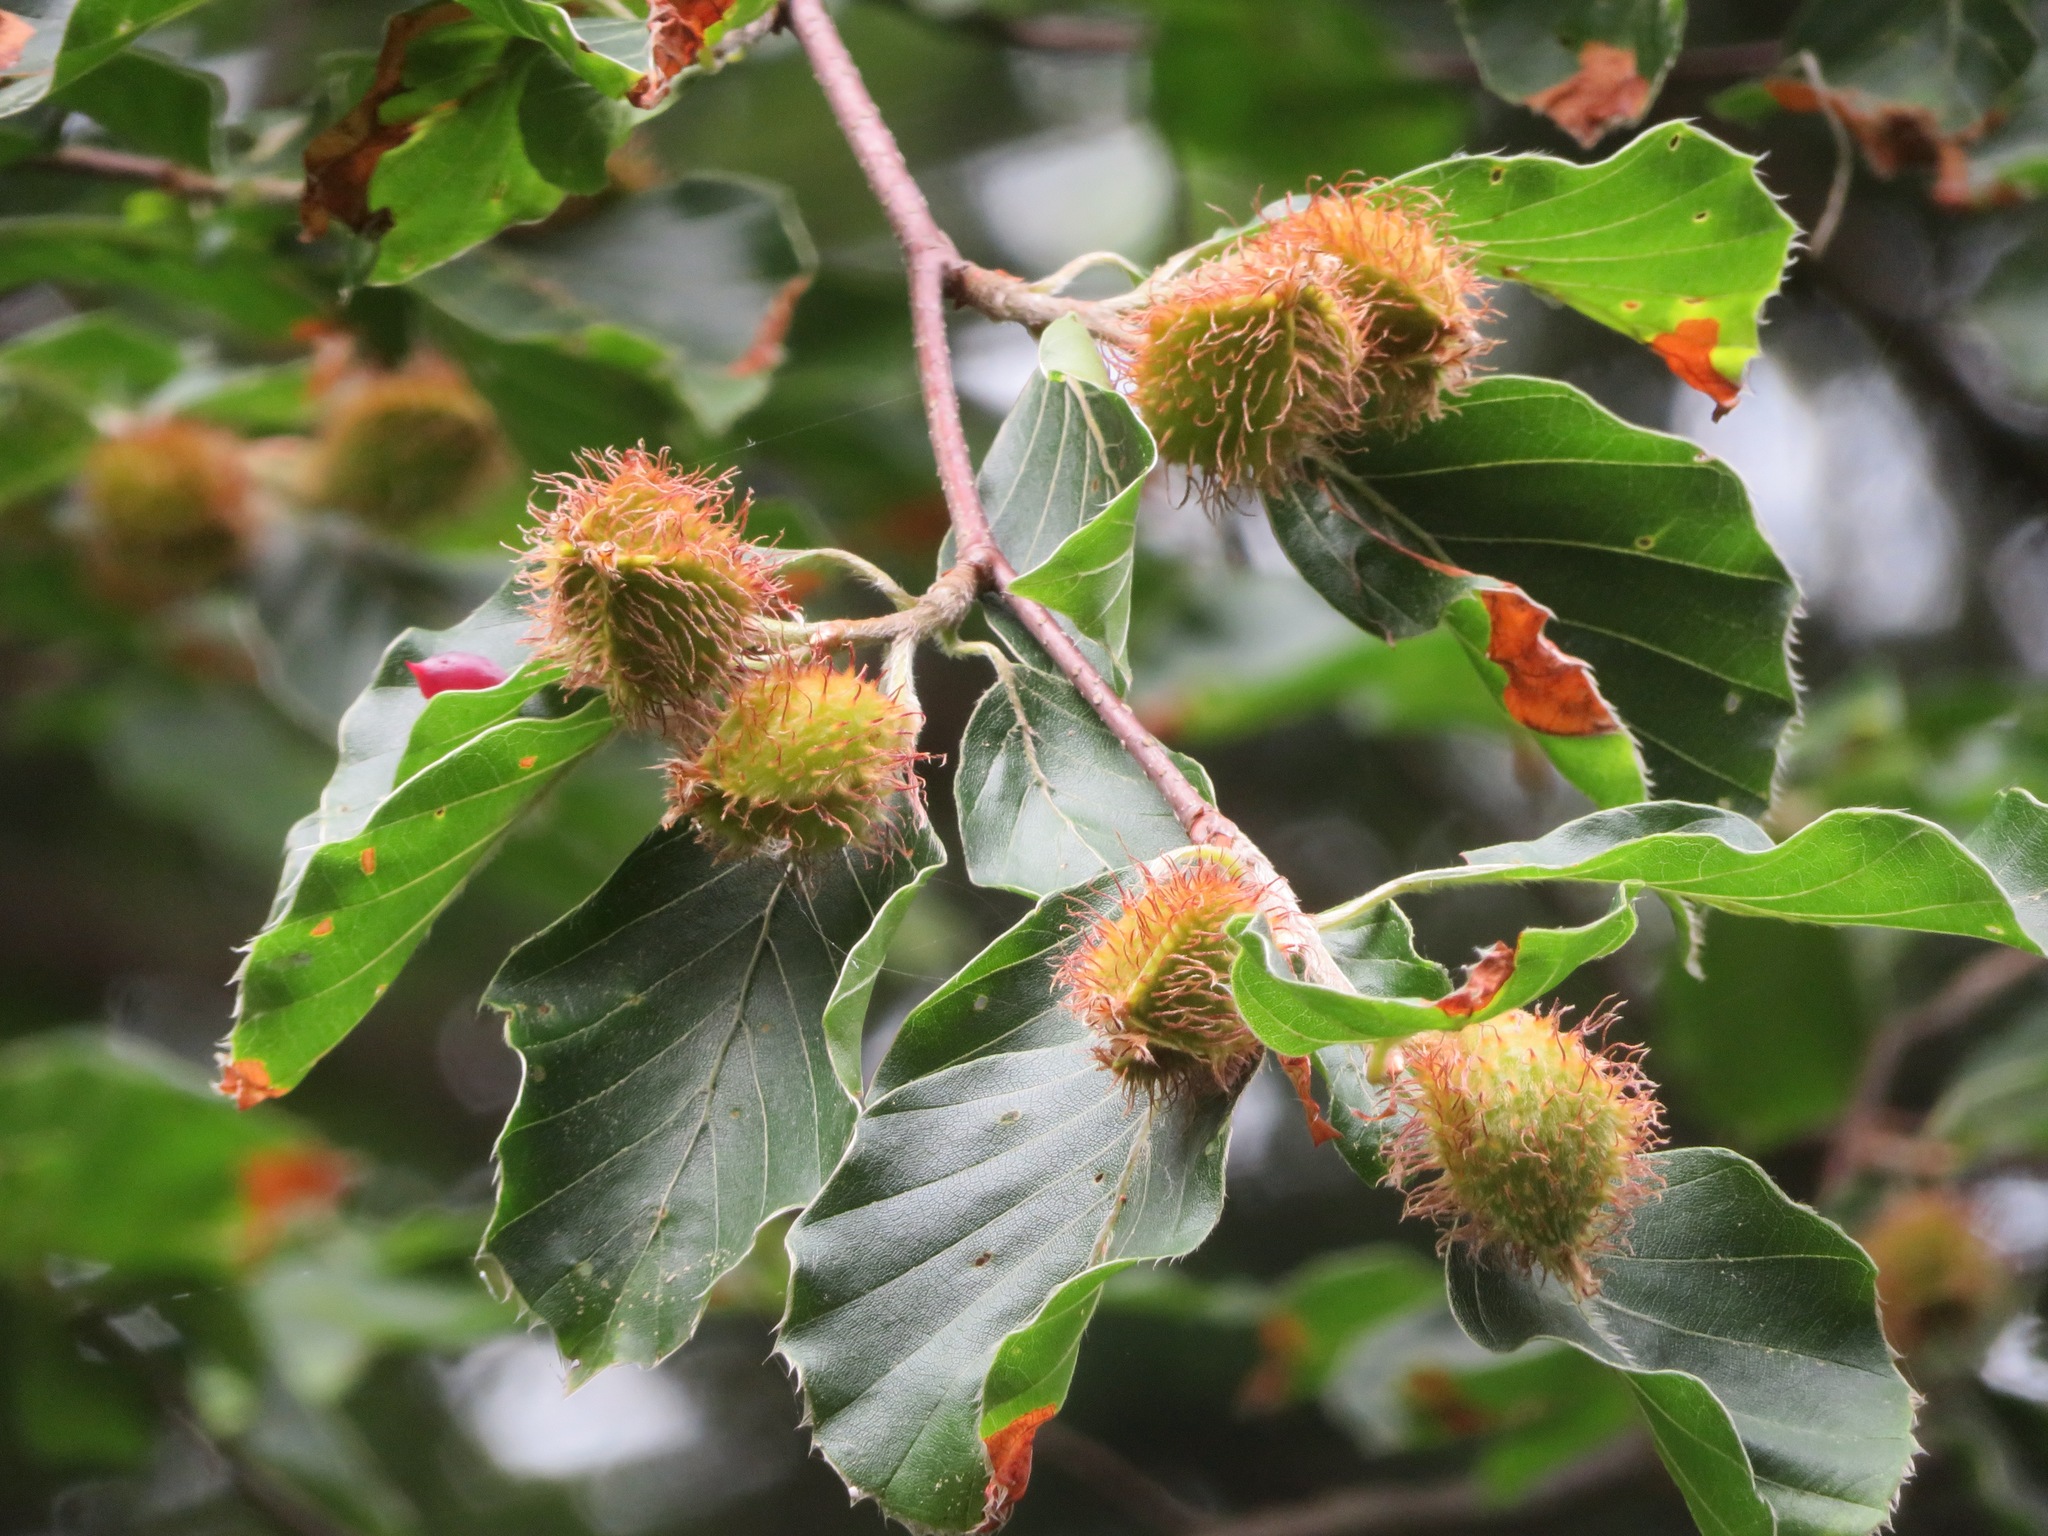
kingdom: Plantae
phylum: Tracheophyta
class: Magnoliopsida
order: Fagales
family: Fagaceae
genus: Fagus
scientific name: Fagus sylvatica
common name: Beech
